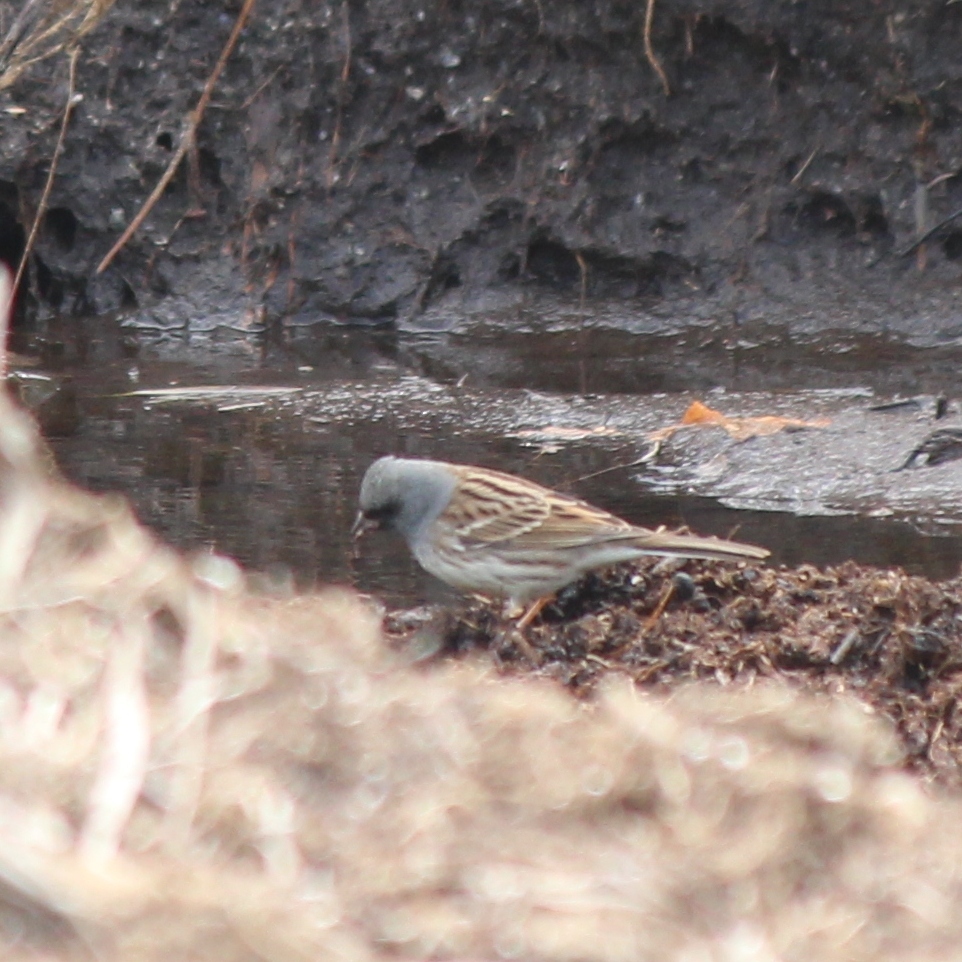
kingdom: Animalia
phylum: Chordata
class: Aves
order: Passeriformes
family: Emberizidae
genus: Emberiza
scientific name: Emberiza spodocephala
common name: Black-faced bunting
